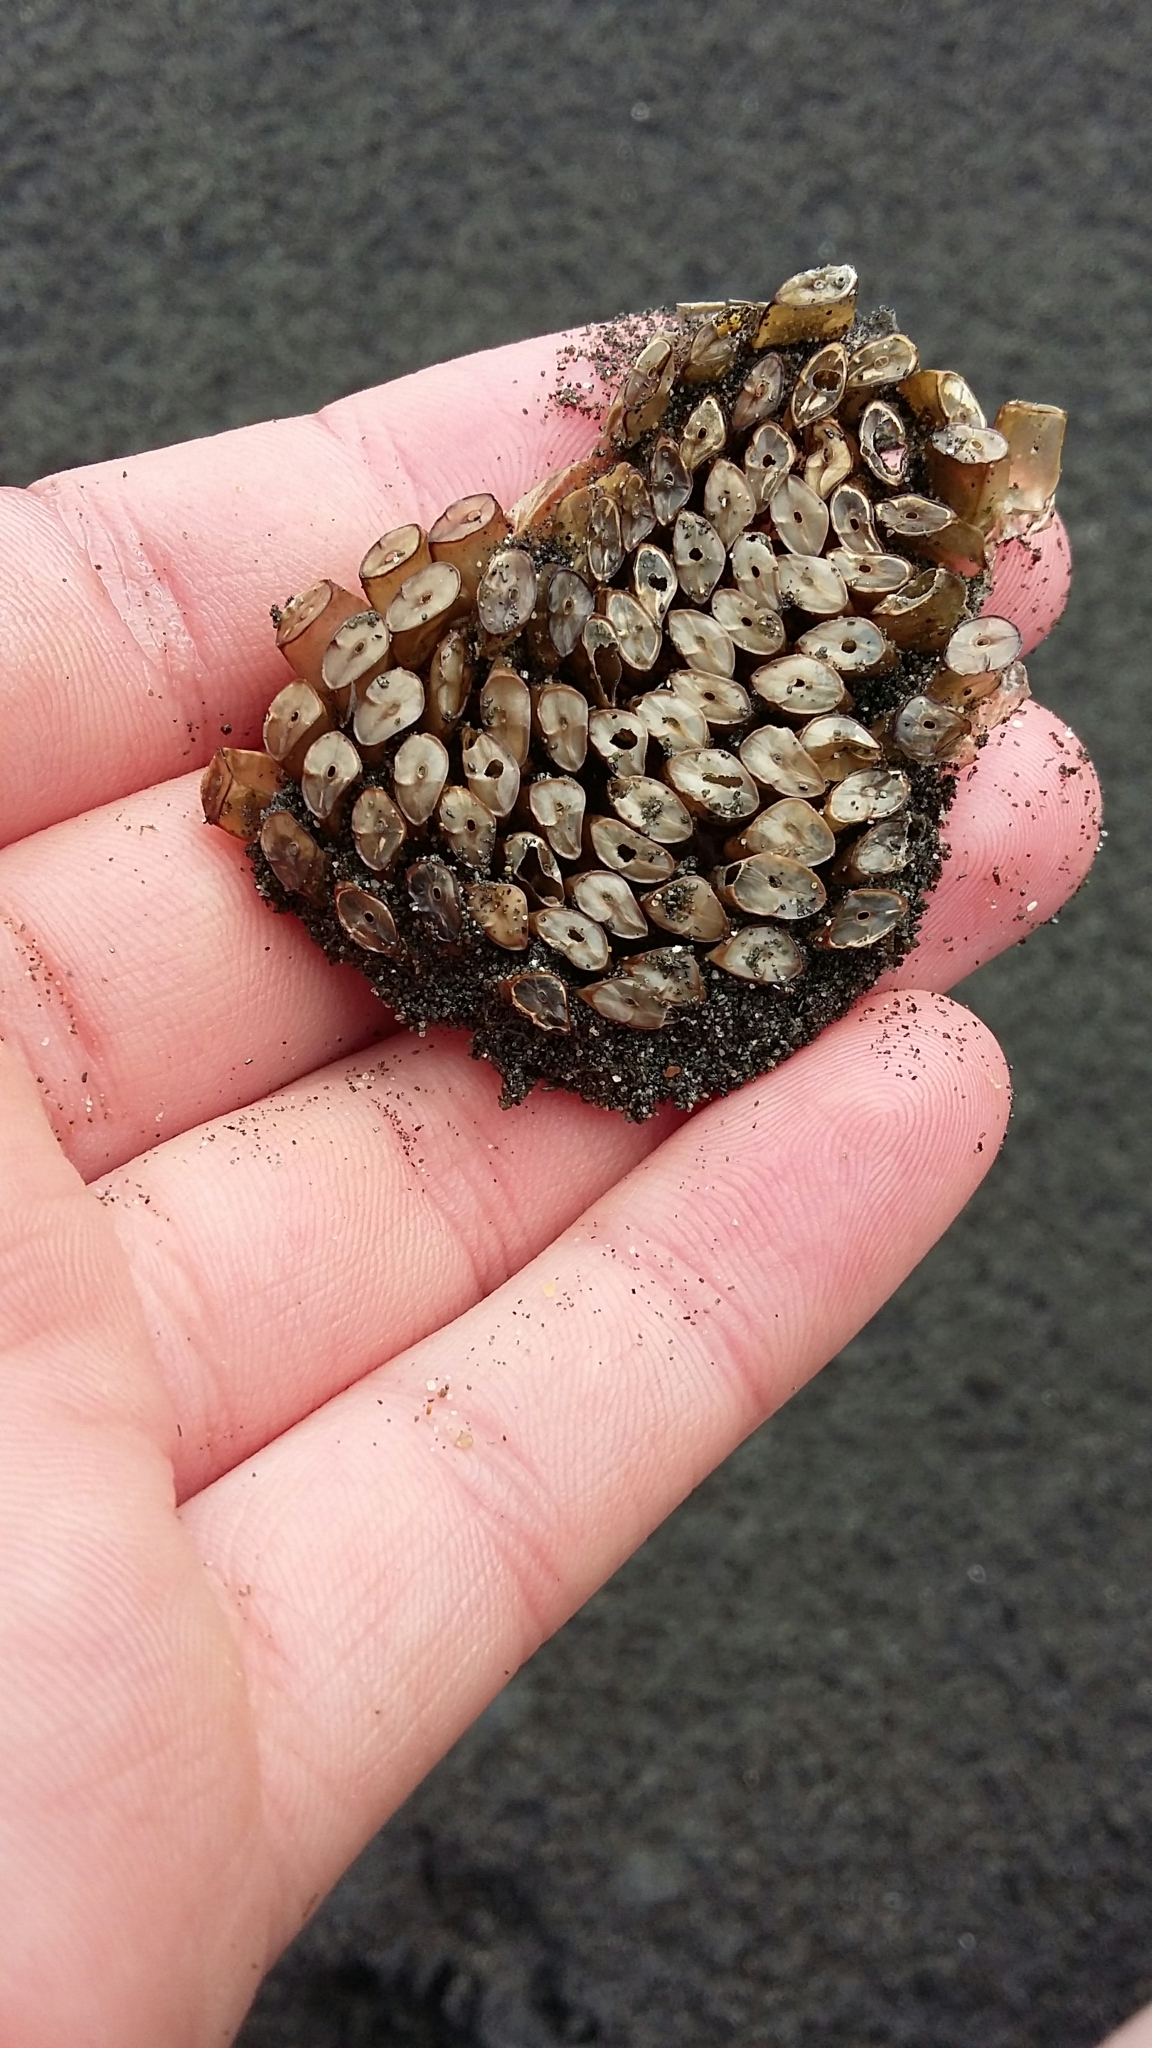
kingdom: Animalia
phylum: Mollusca
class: Gastropoda
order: Neogastropoda
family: Muricidae
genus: Dicathais
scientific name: Dicathais orbita
